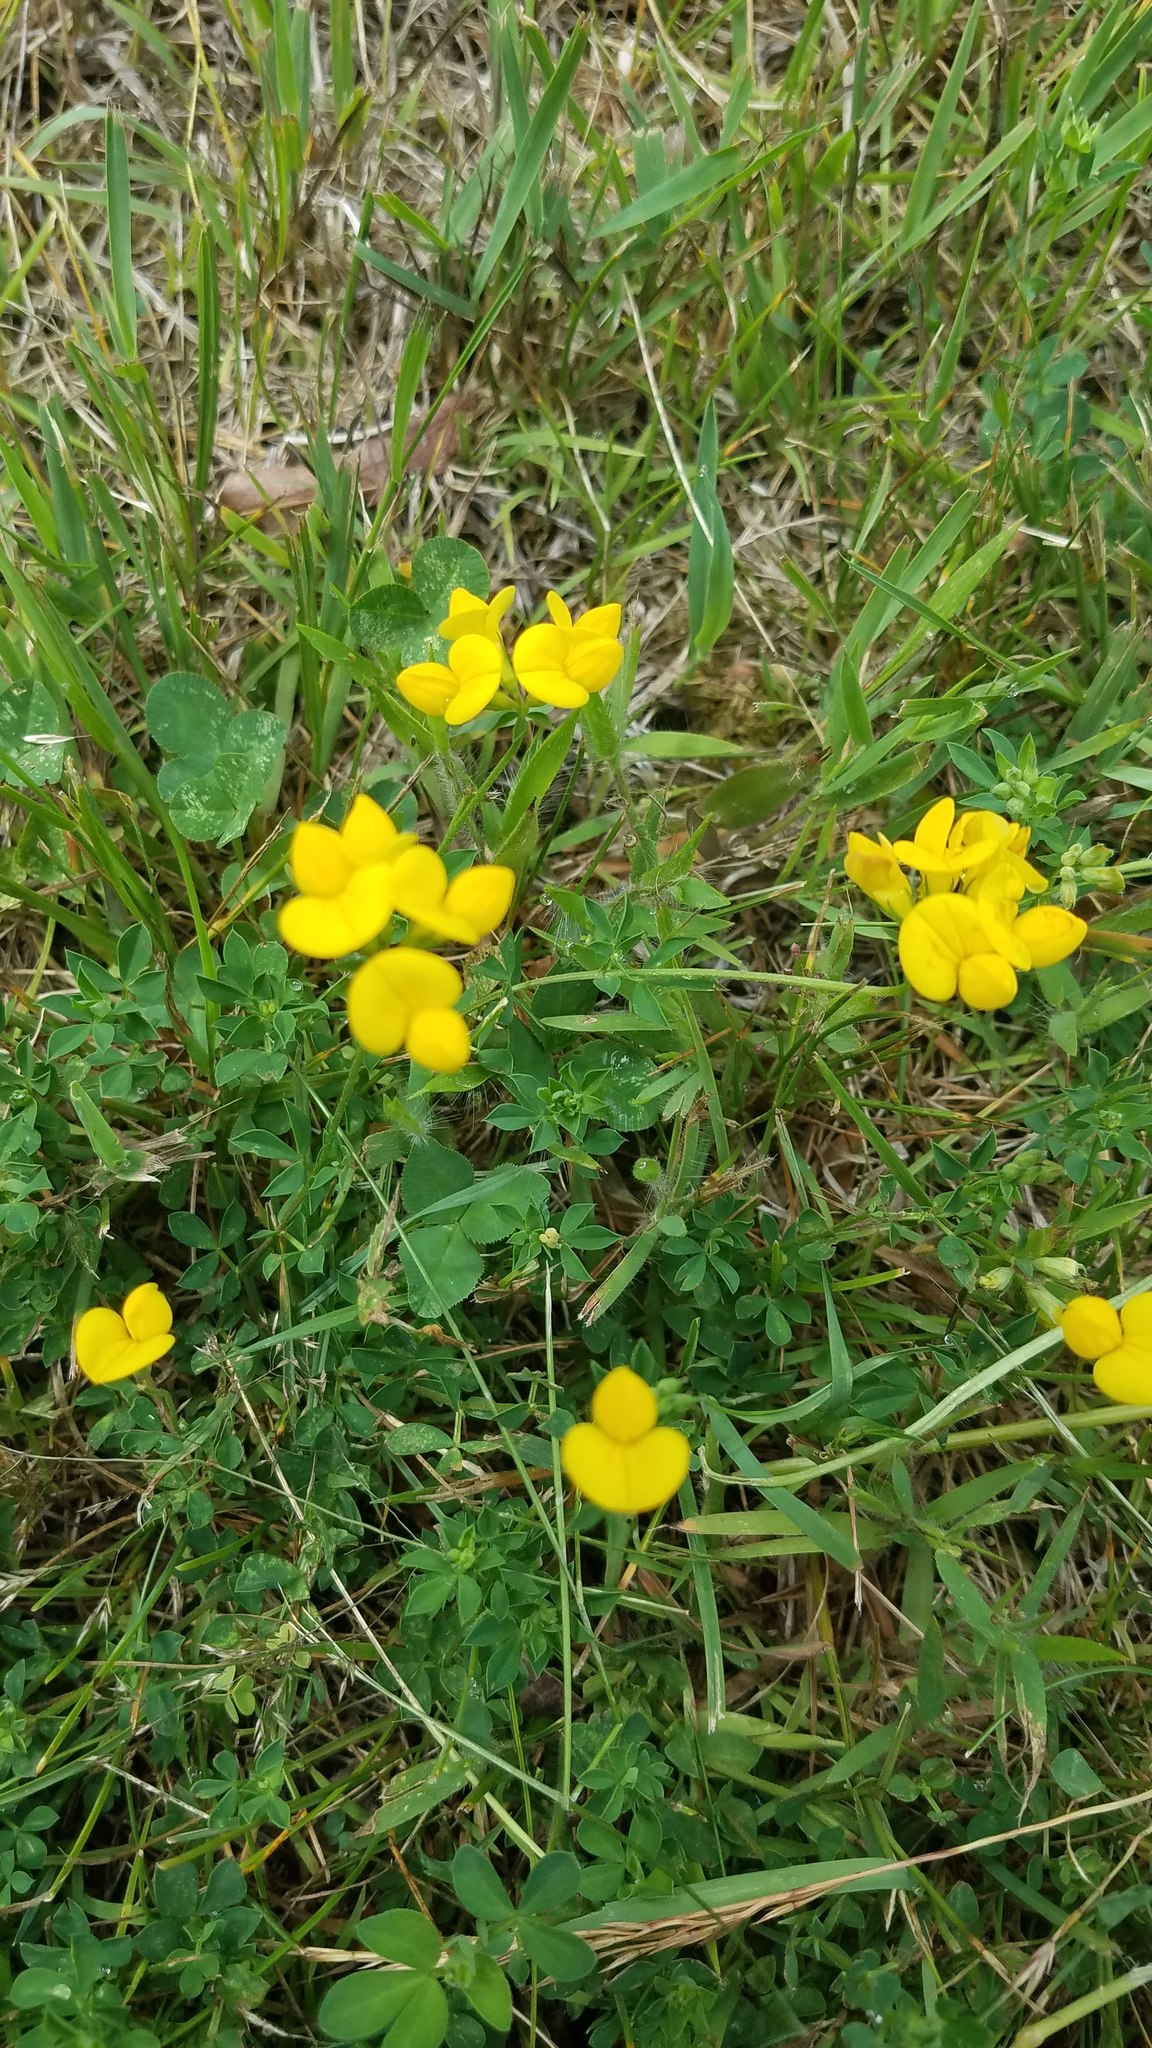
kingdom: Plantae
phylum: Tracheophyta
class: Magnoliopsida
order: Fabales
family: Fabaceae
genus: Lotus
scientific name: Lotus corniculatus
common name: Common bird's-foot-trefoil
